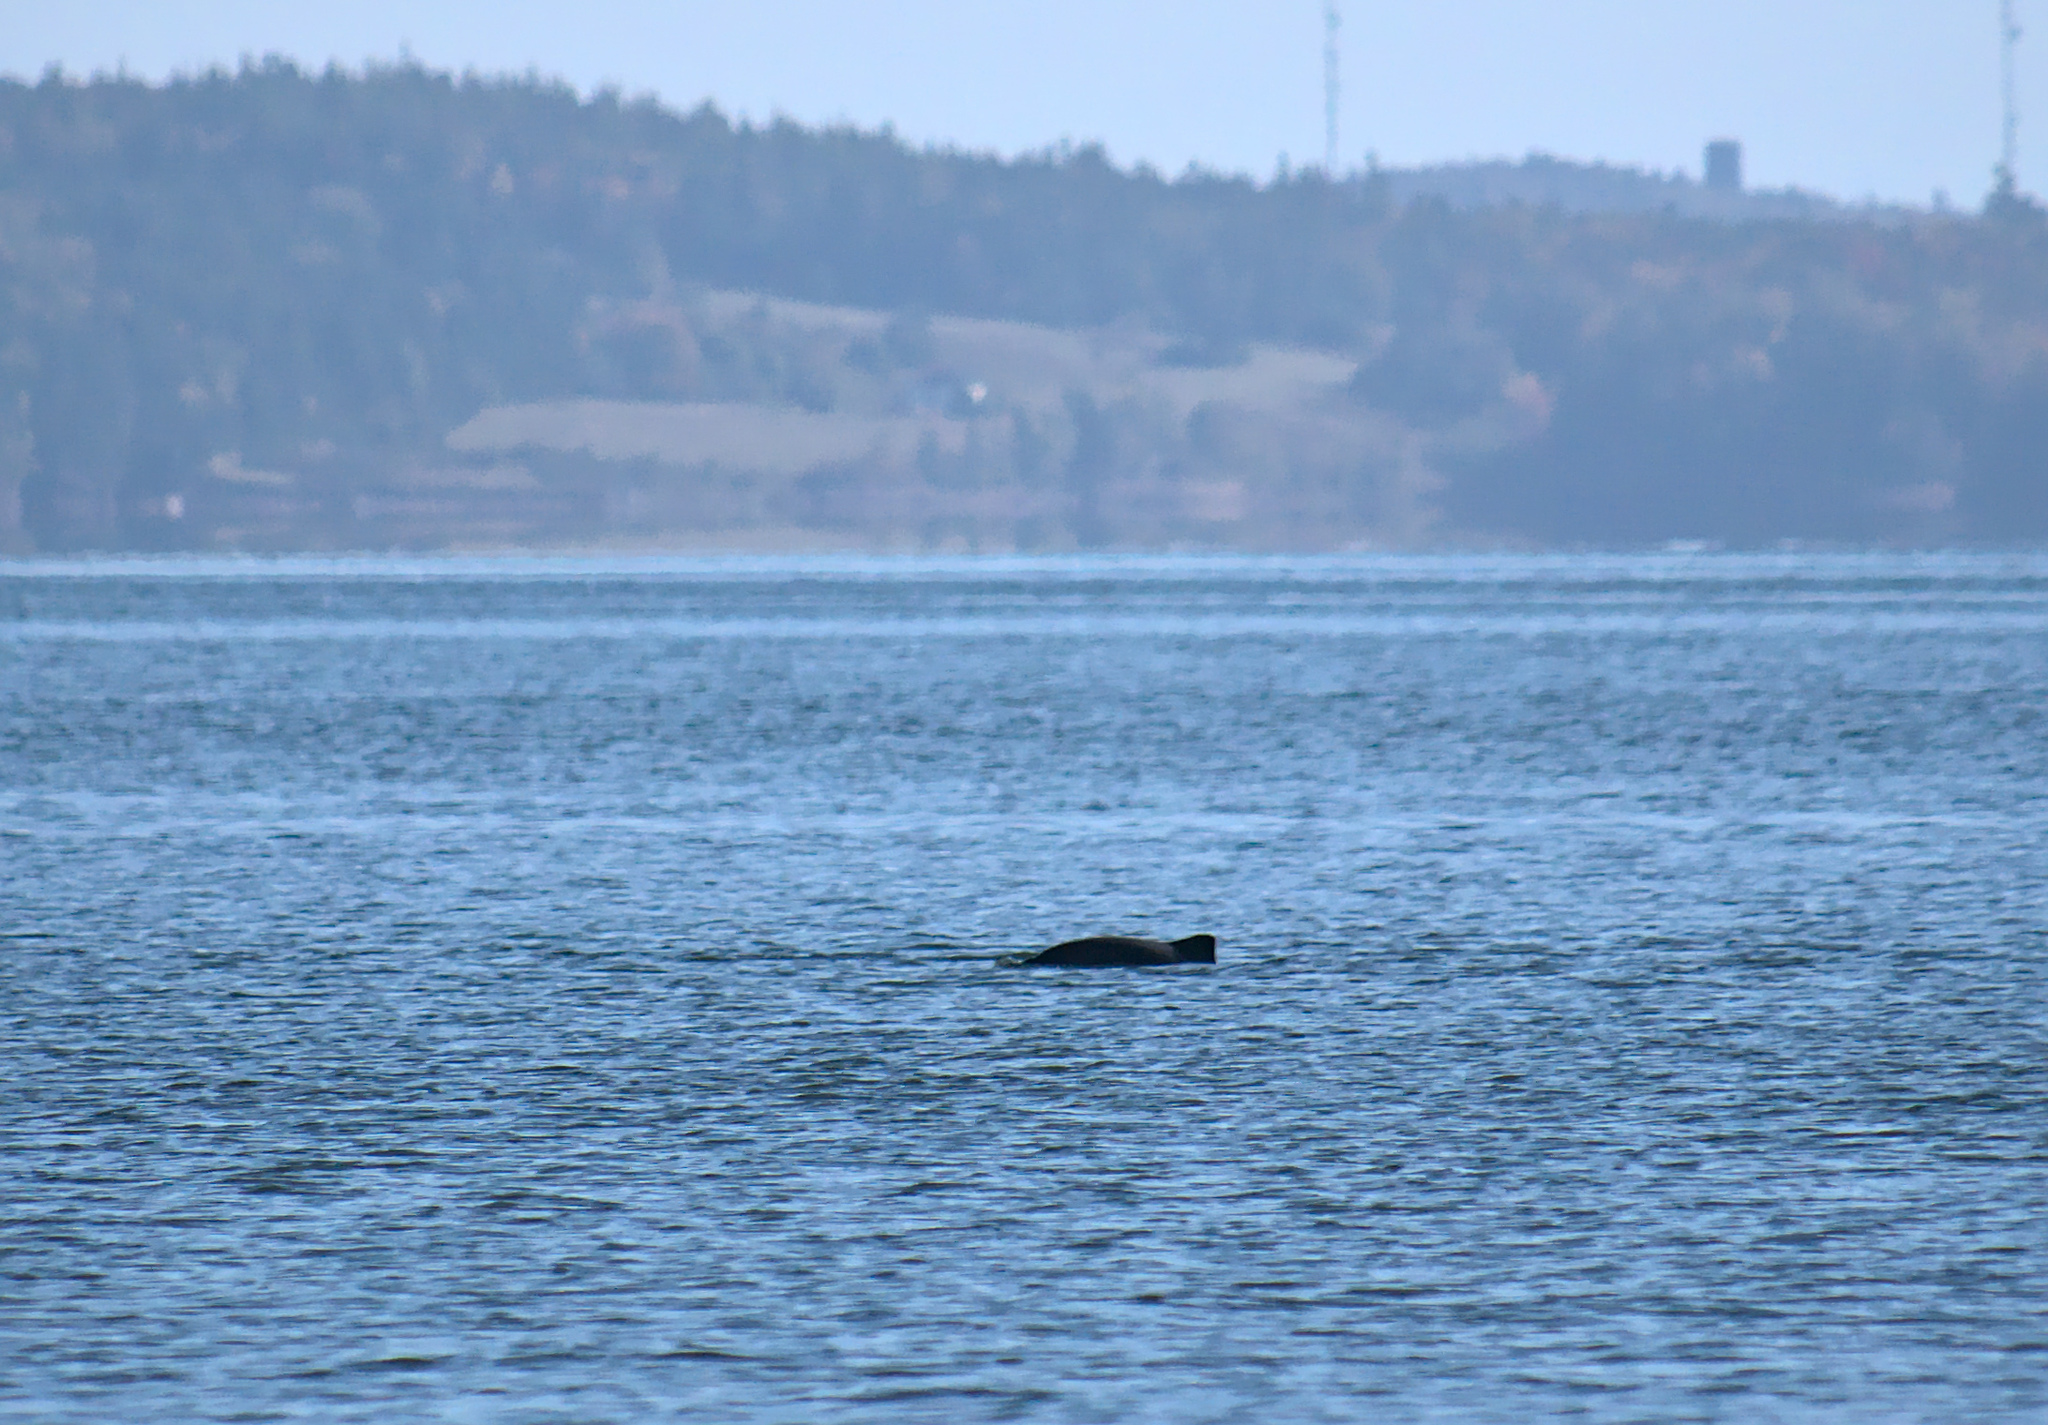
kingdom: Animalia
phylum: Chordata
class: Mammalia
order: Cetacea
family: Phocoenidae
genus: Phocoena
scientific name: Phocoena phocoena
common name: Harbor porpoise
